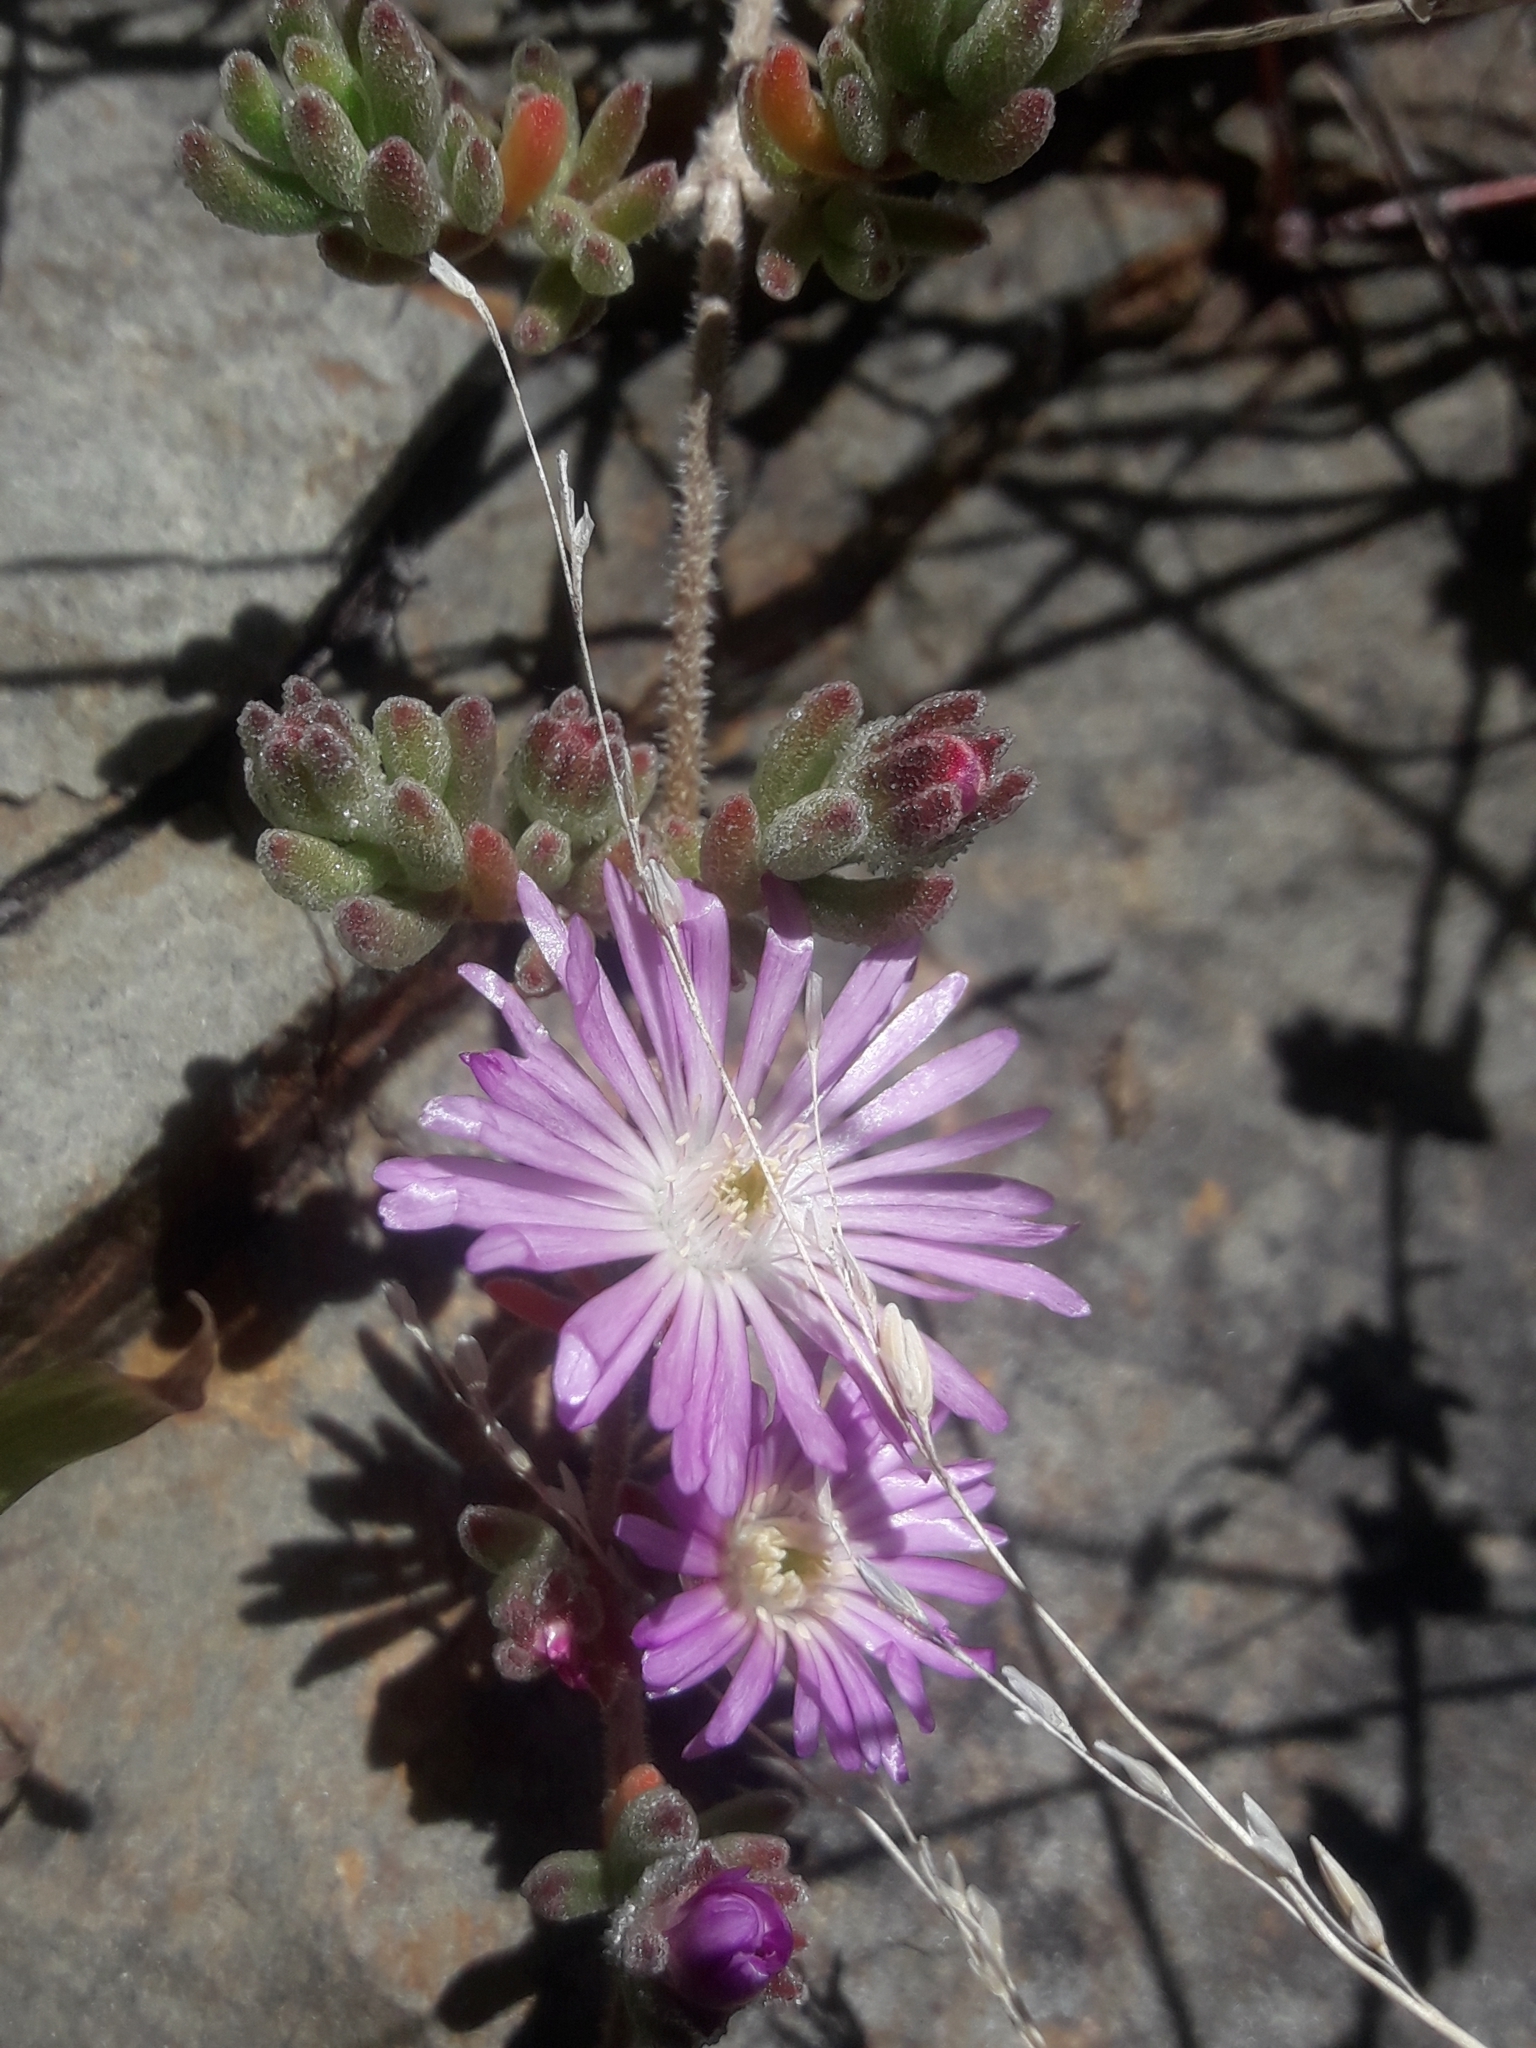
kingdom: Plantae
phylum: Tracheophyta
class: Magnoliopsida
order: Caryophyllales
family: Aizoaceae
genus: Drosanthemum
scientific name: Drosanthemum floribundum
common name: Pale dewplant
